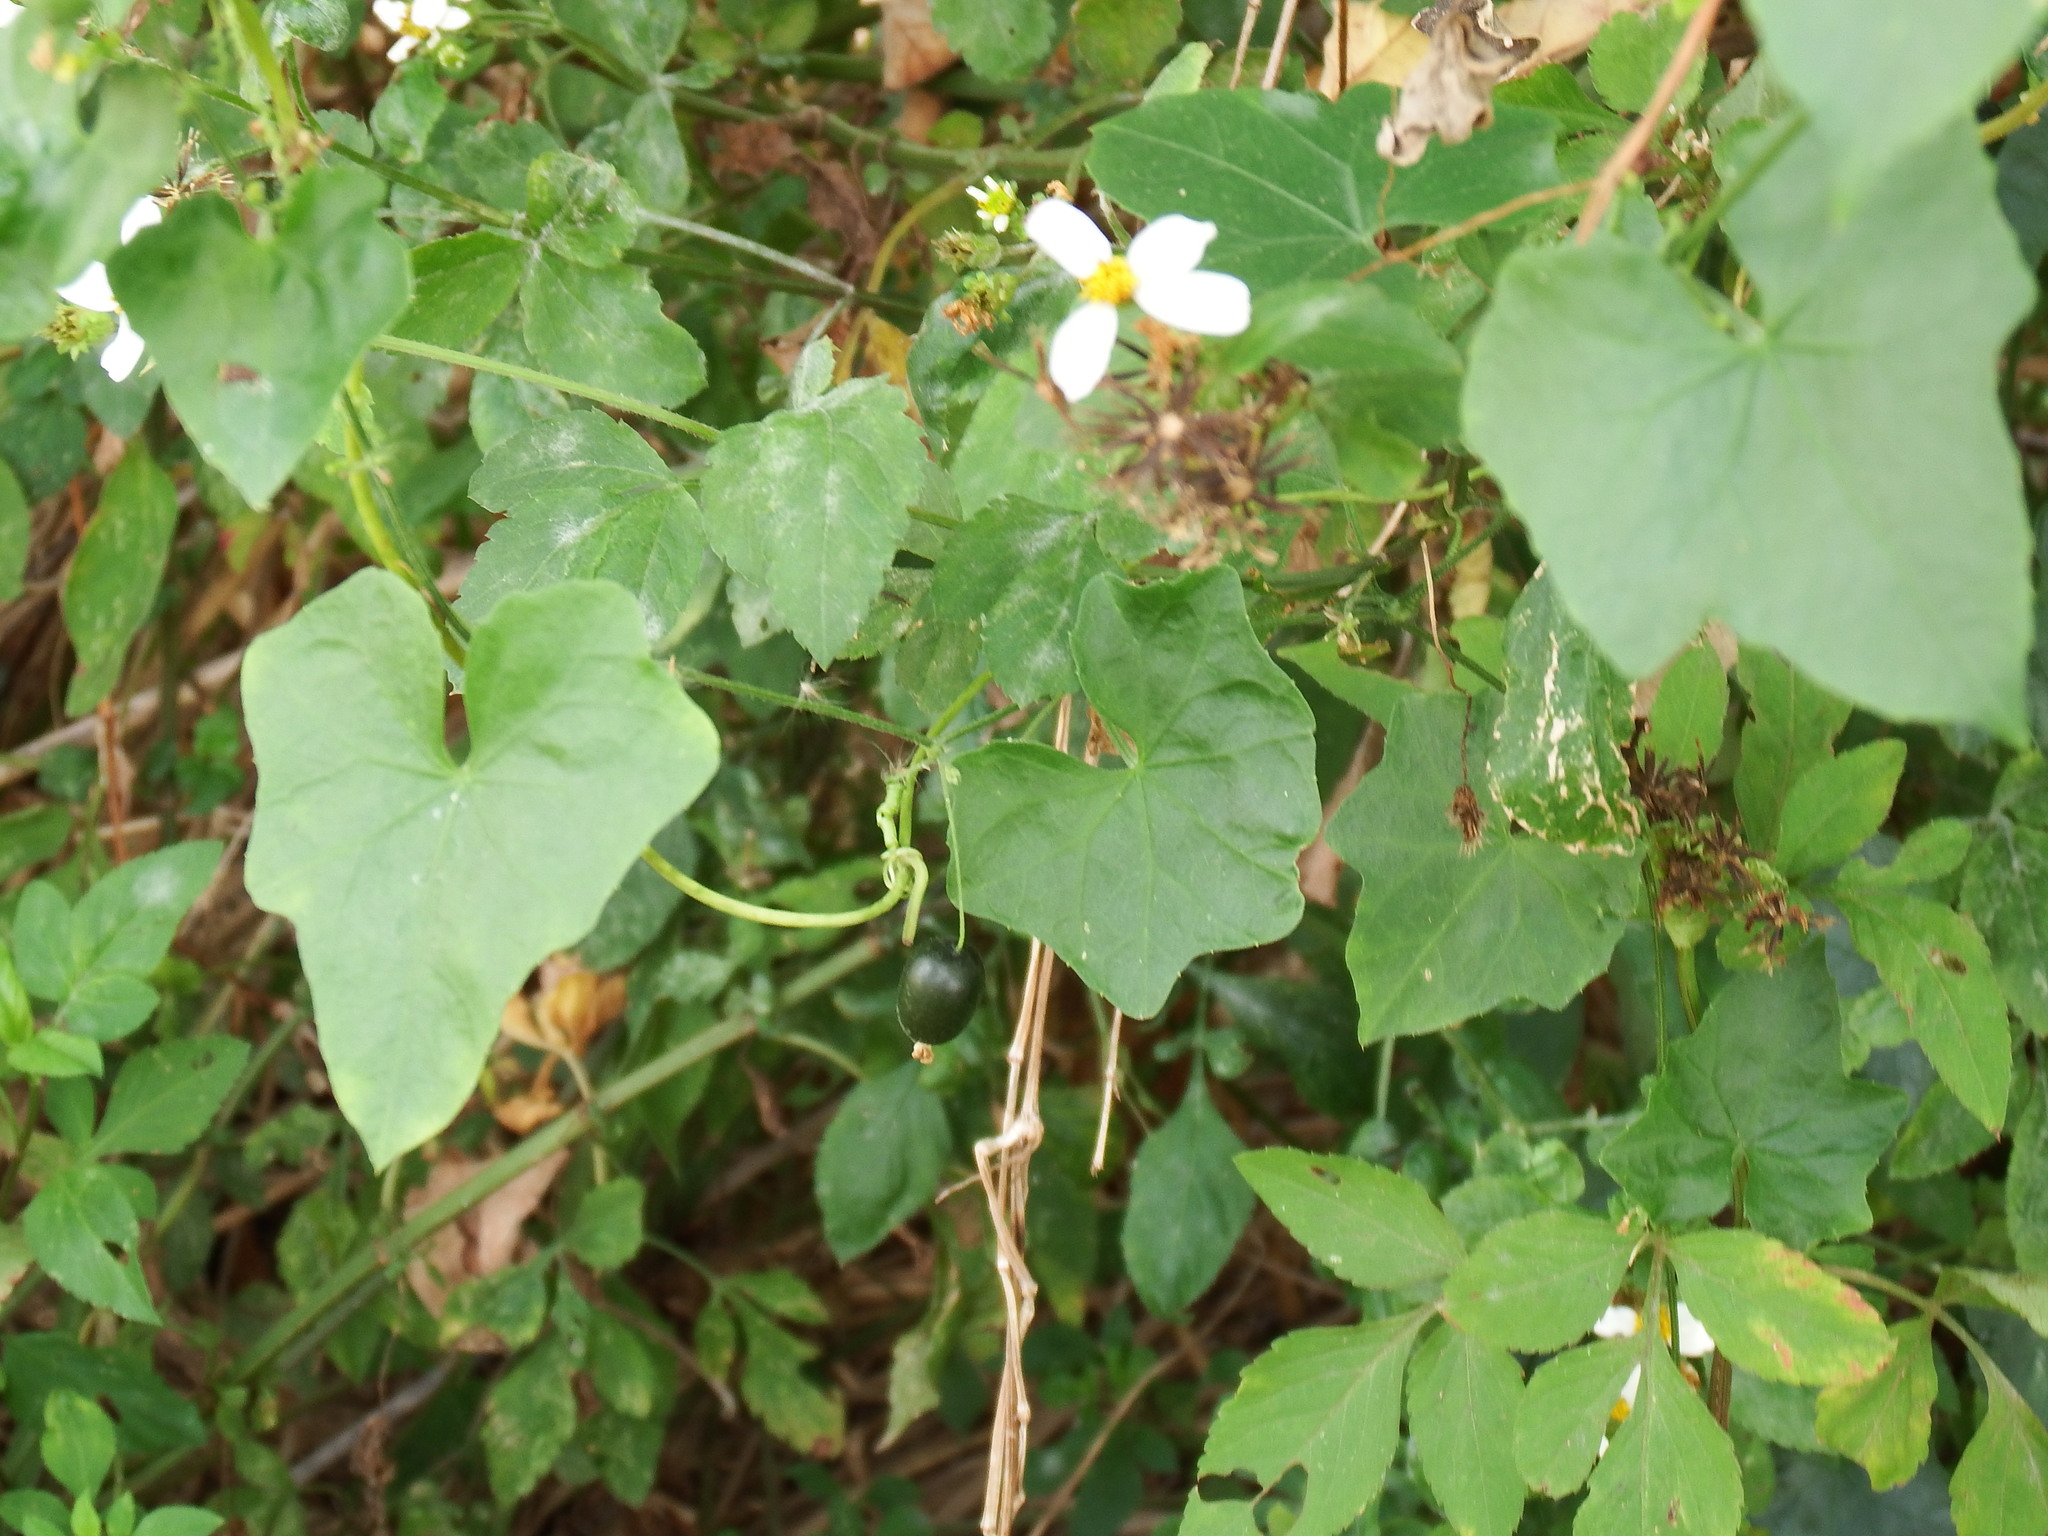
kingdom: Plantae
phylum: Tracheophyta
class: Magnoliopsida
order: Cucurbitales
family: Cucurbitaceae
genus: Melothria
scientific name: Melothria pendula
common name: Creeping-cucumber
